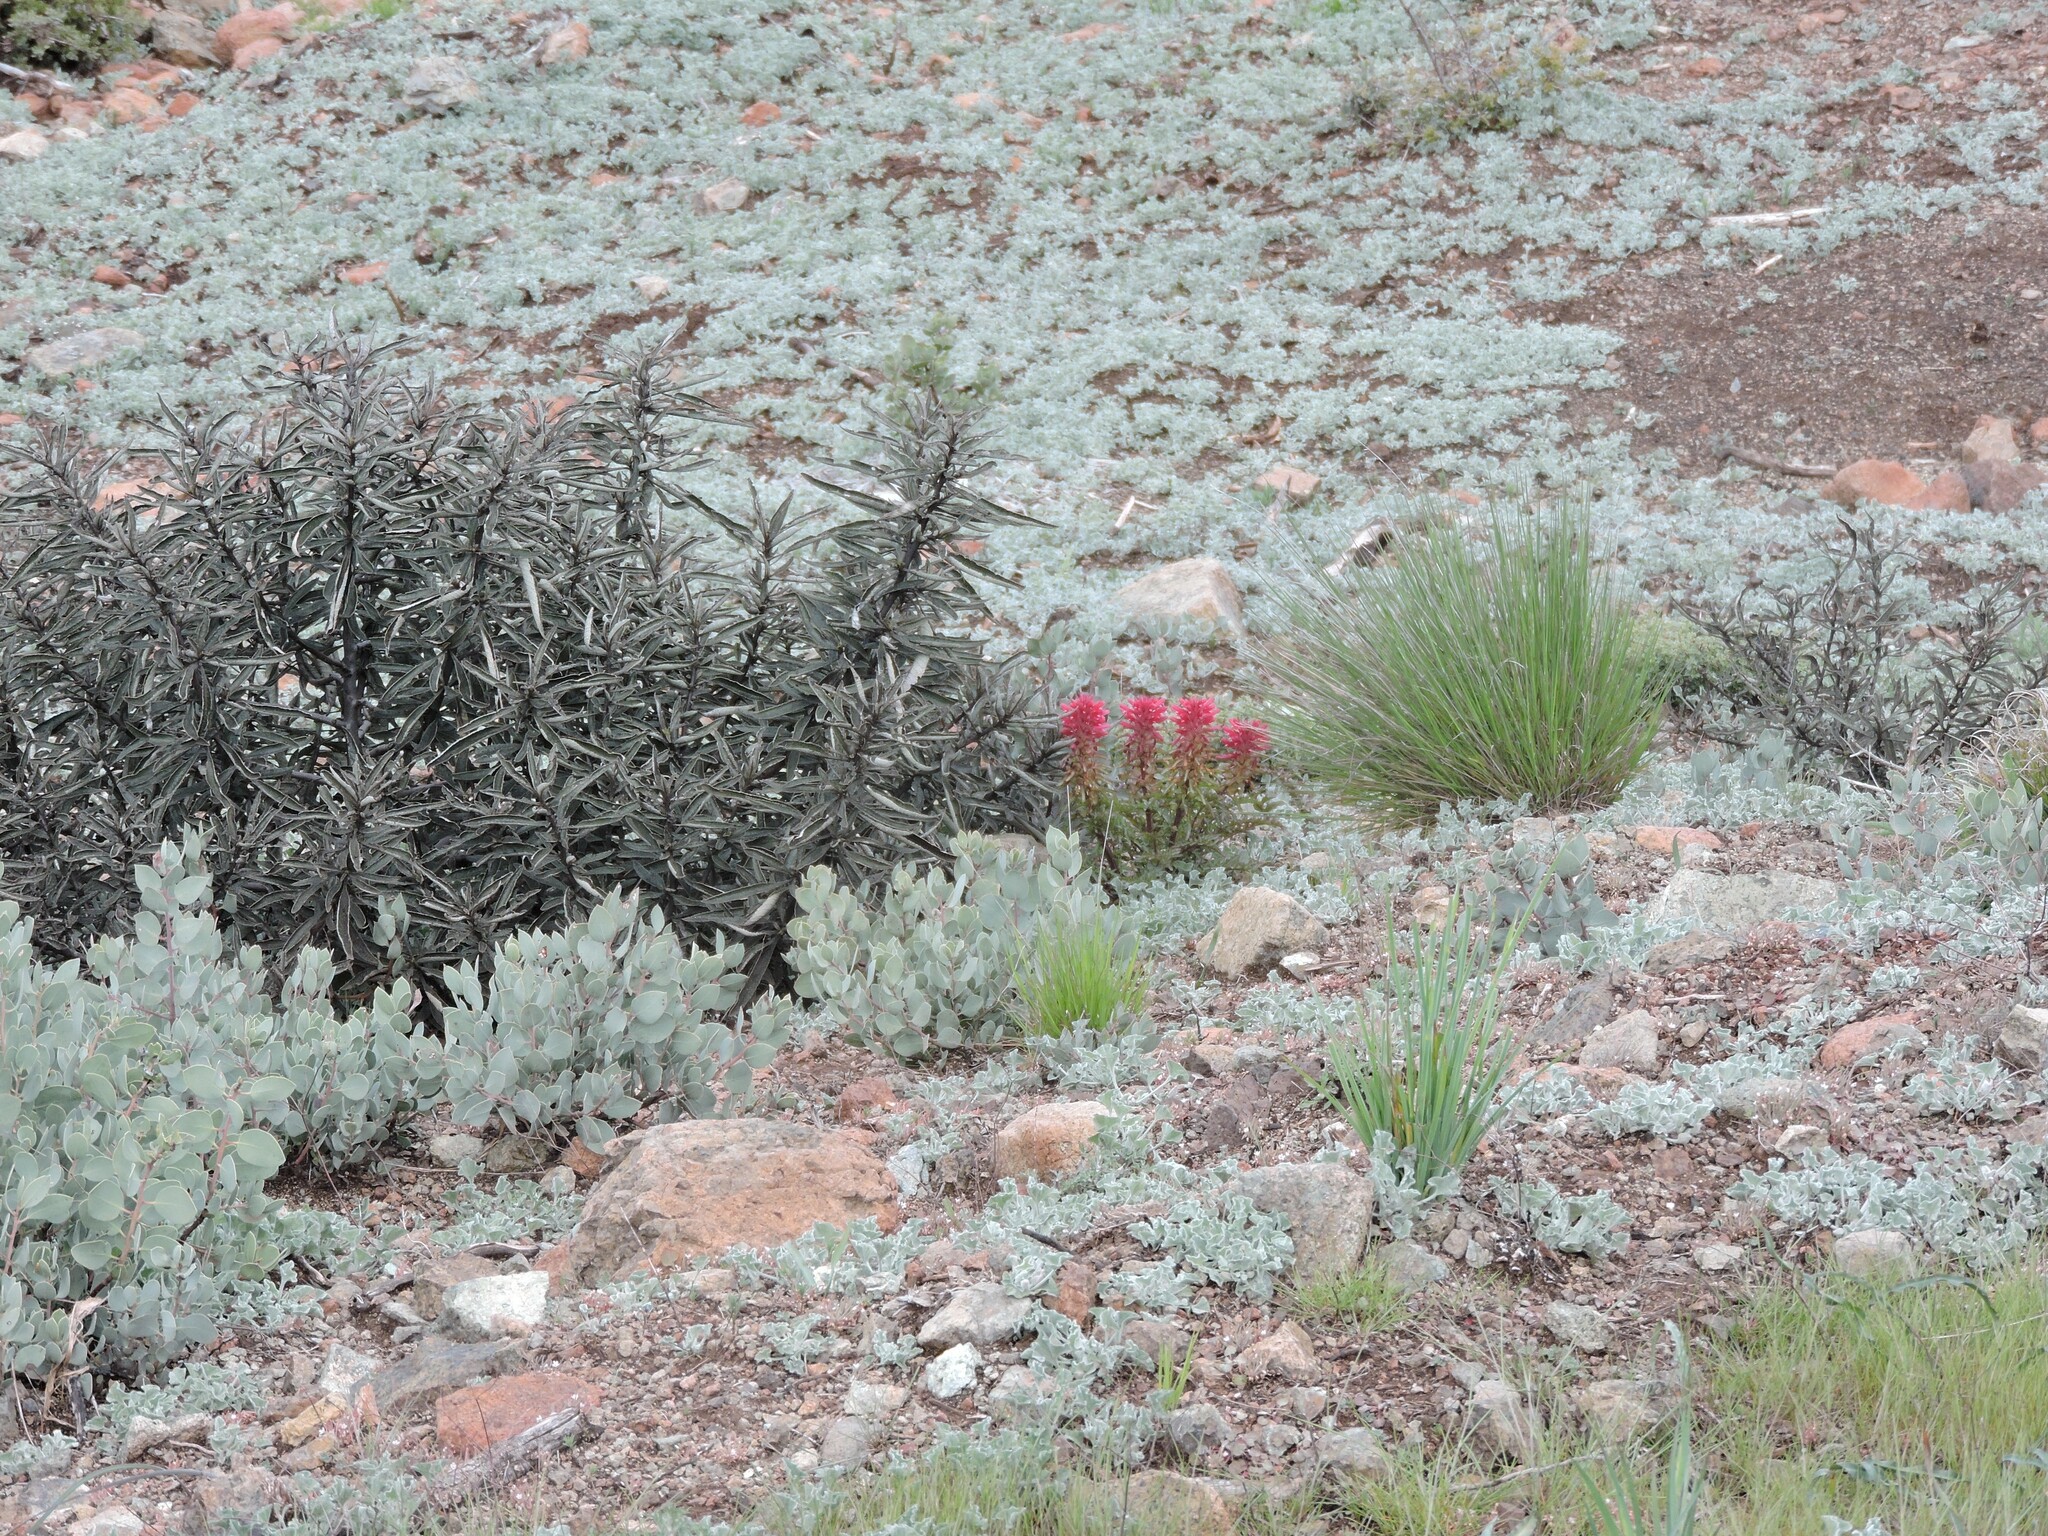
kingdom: Plantae
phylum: Tracheophyta
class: Magnoliopsida
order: Lamiales
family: Orobanchaceae
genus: Pedicularis
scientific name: Pedicularis densiflora
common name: Indian warrior
